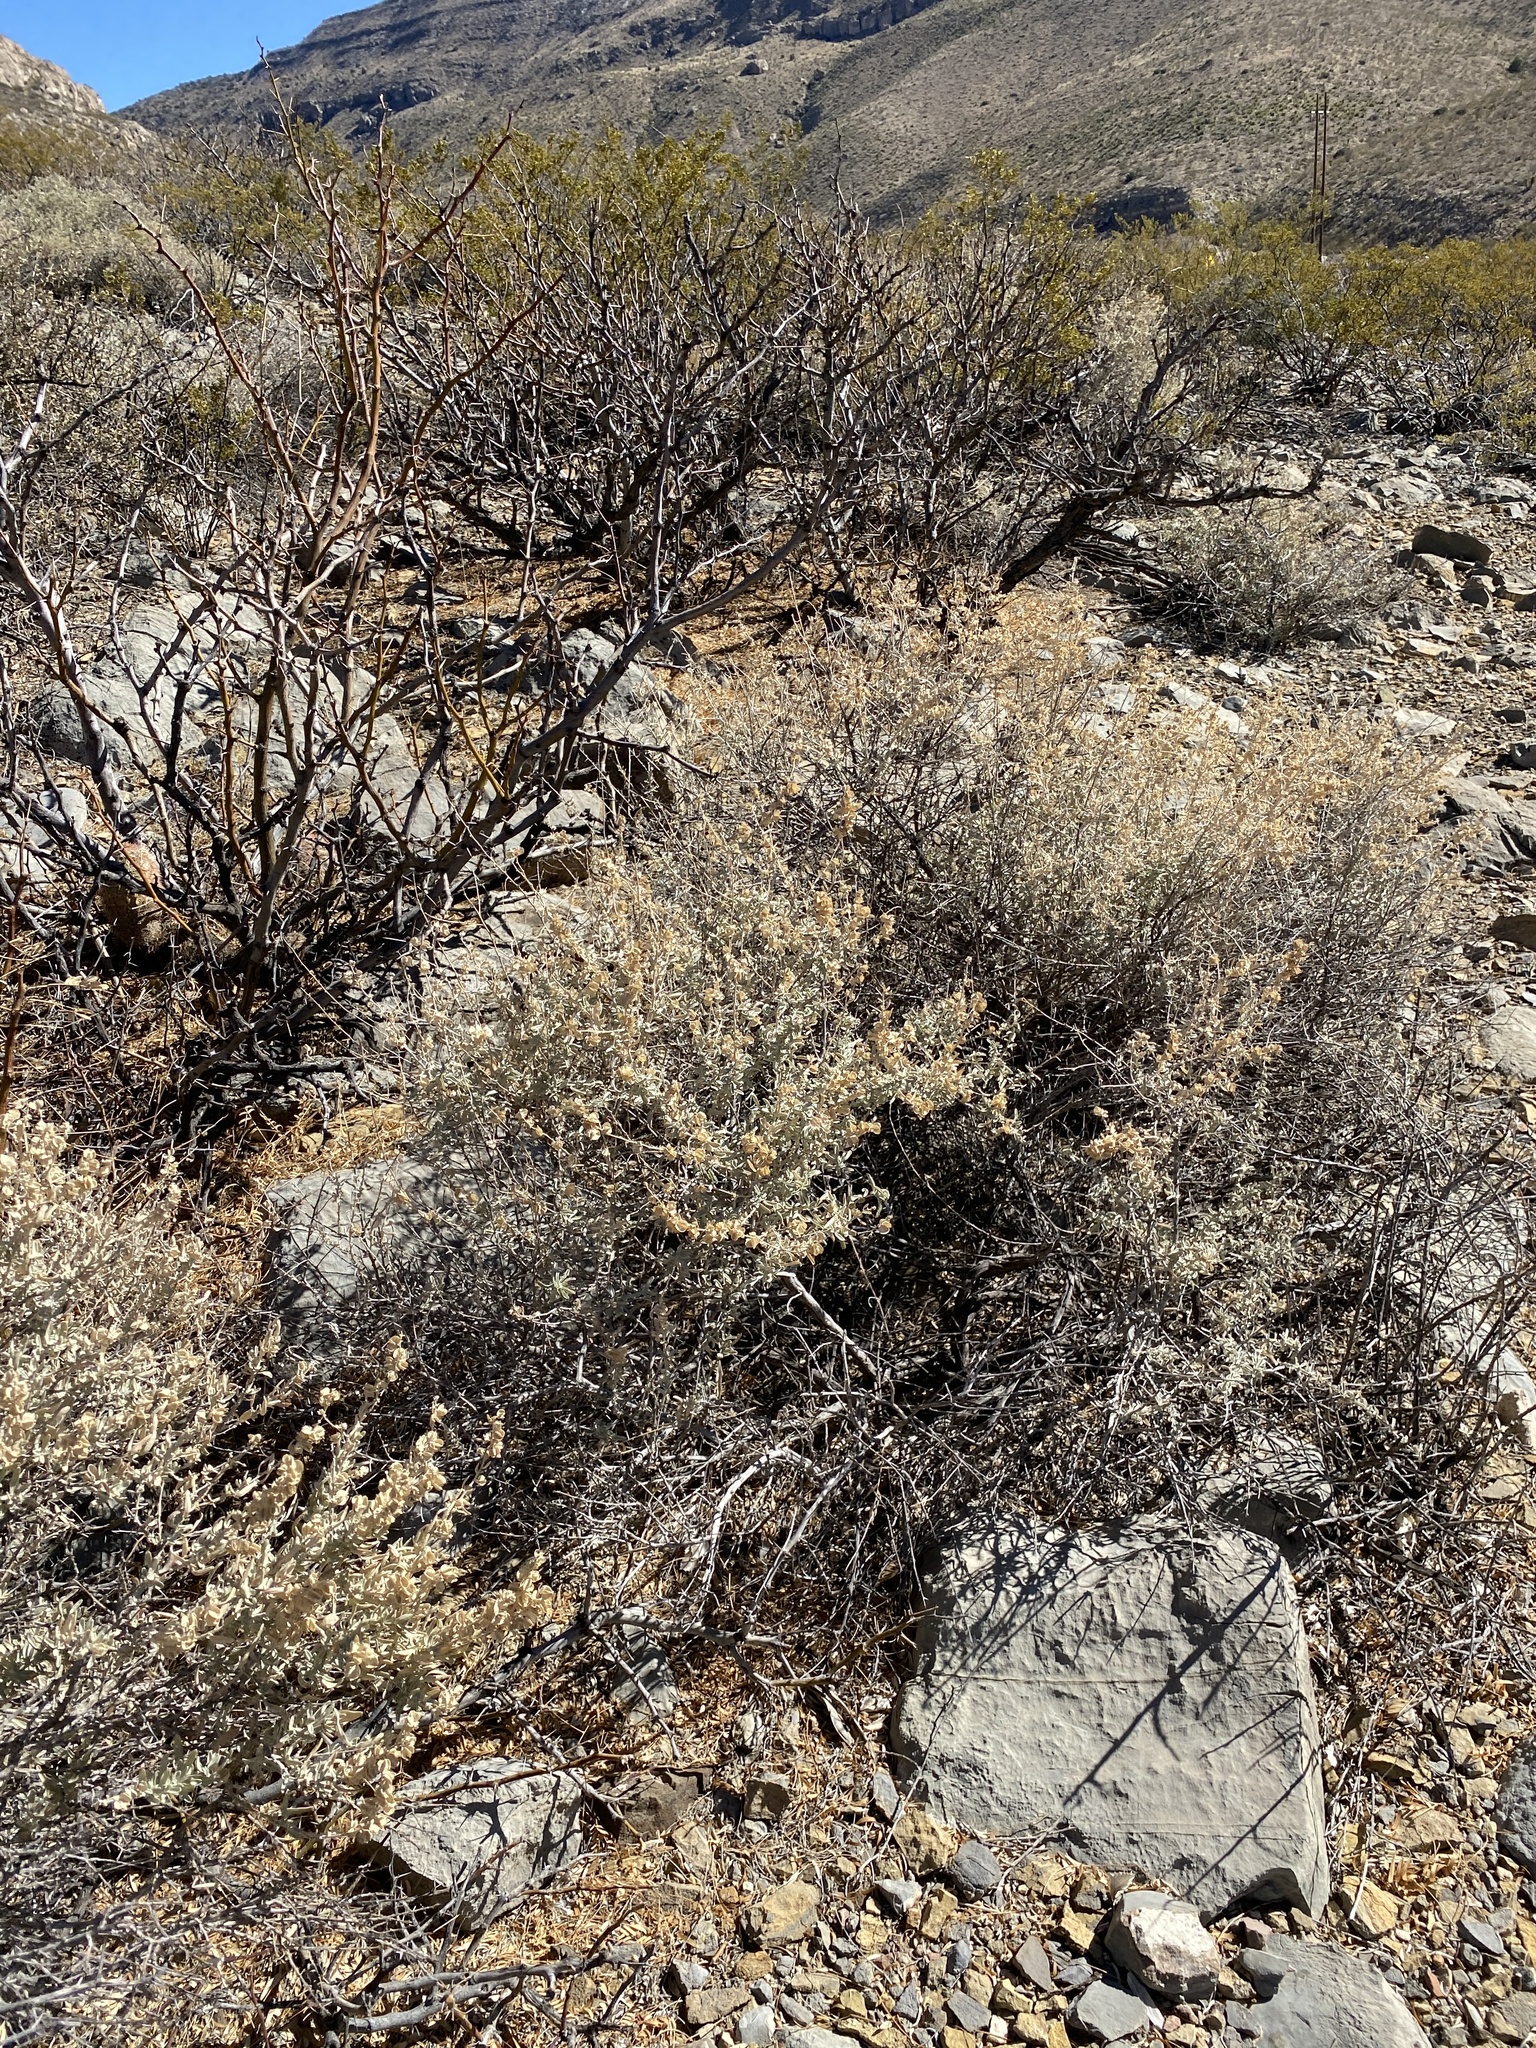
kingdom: Plantae
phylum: Tracheophyta
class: Magnoliopsida
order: Caryophyllales
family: Amaranthaceae
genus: Atriplex
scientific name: Atriplex canescens
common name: Four-wing saltbush
